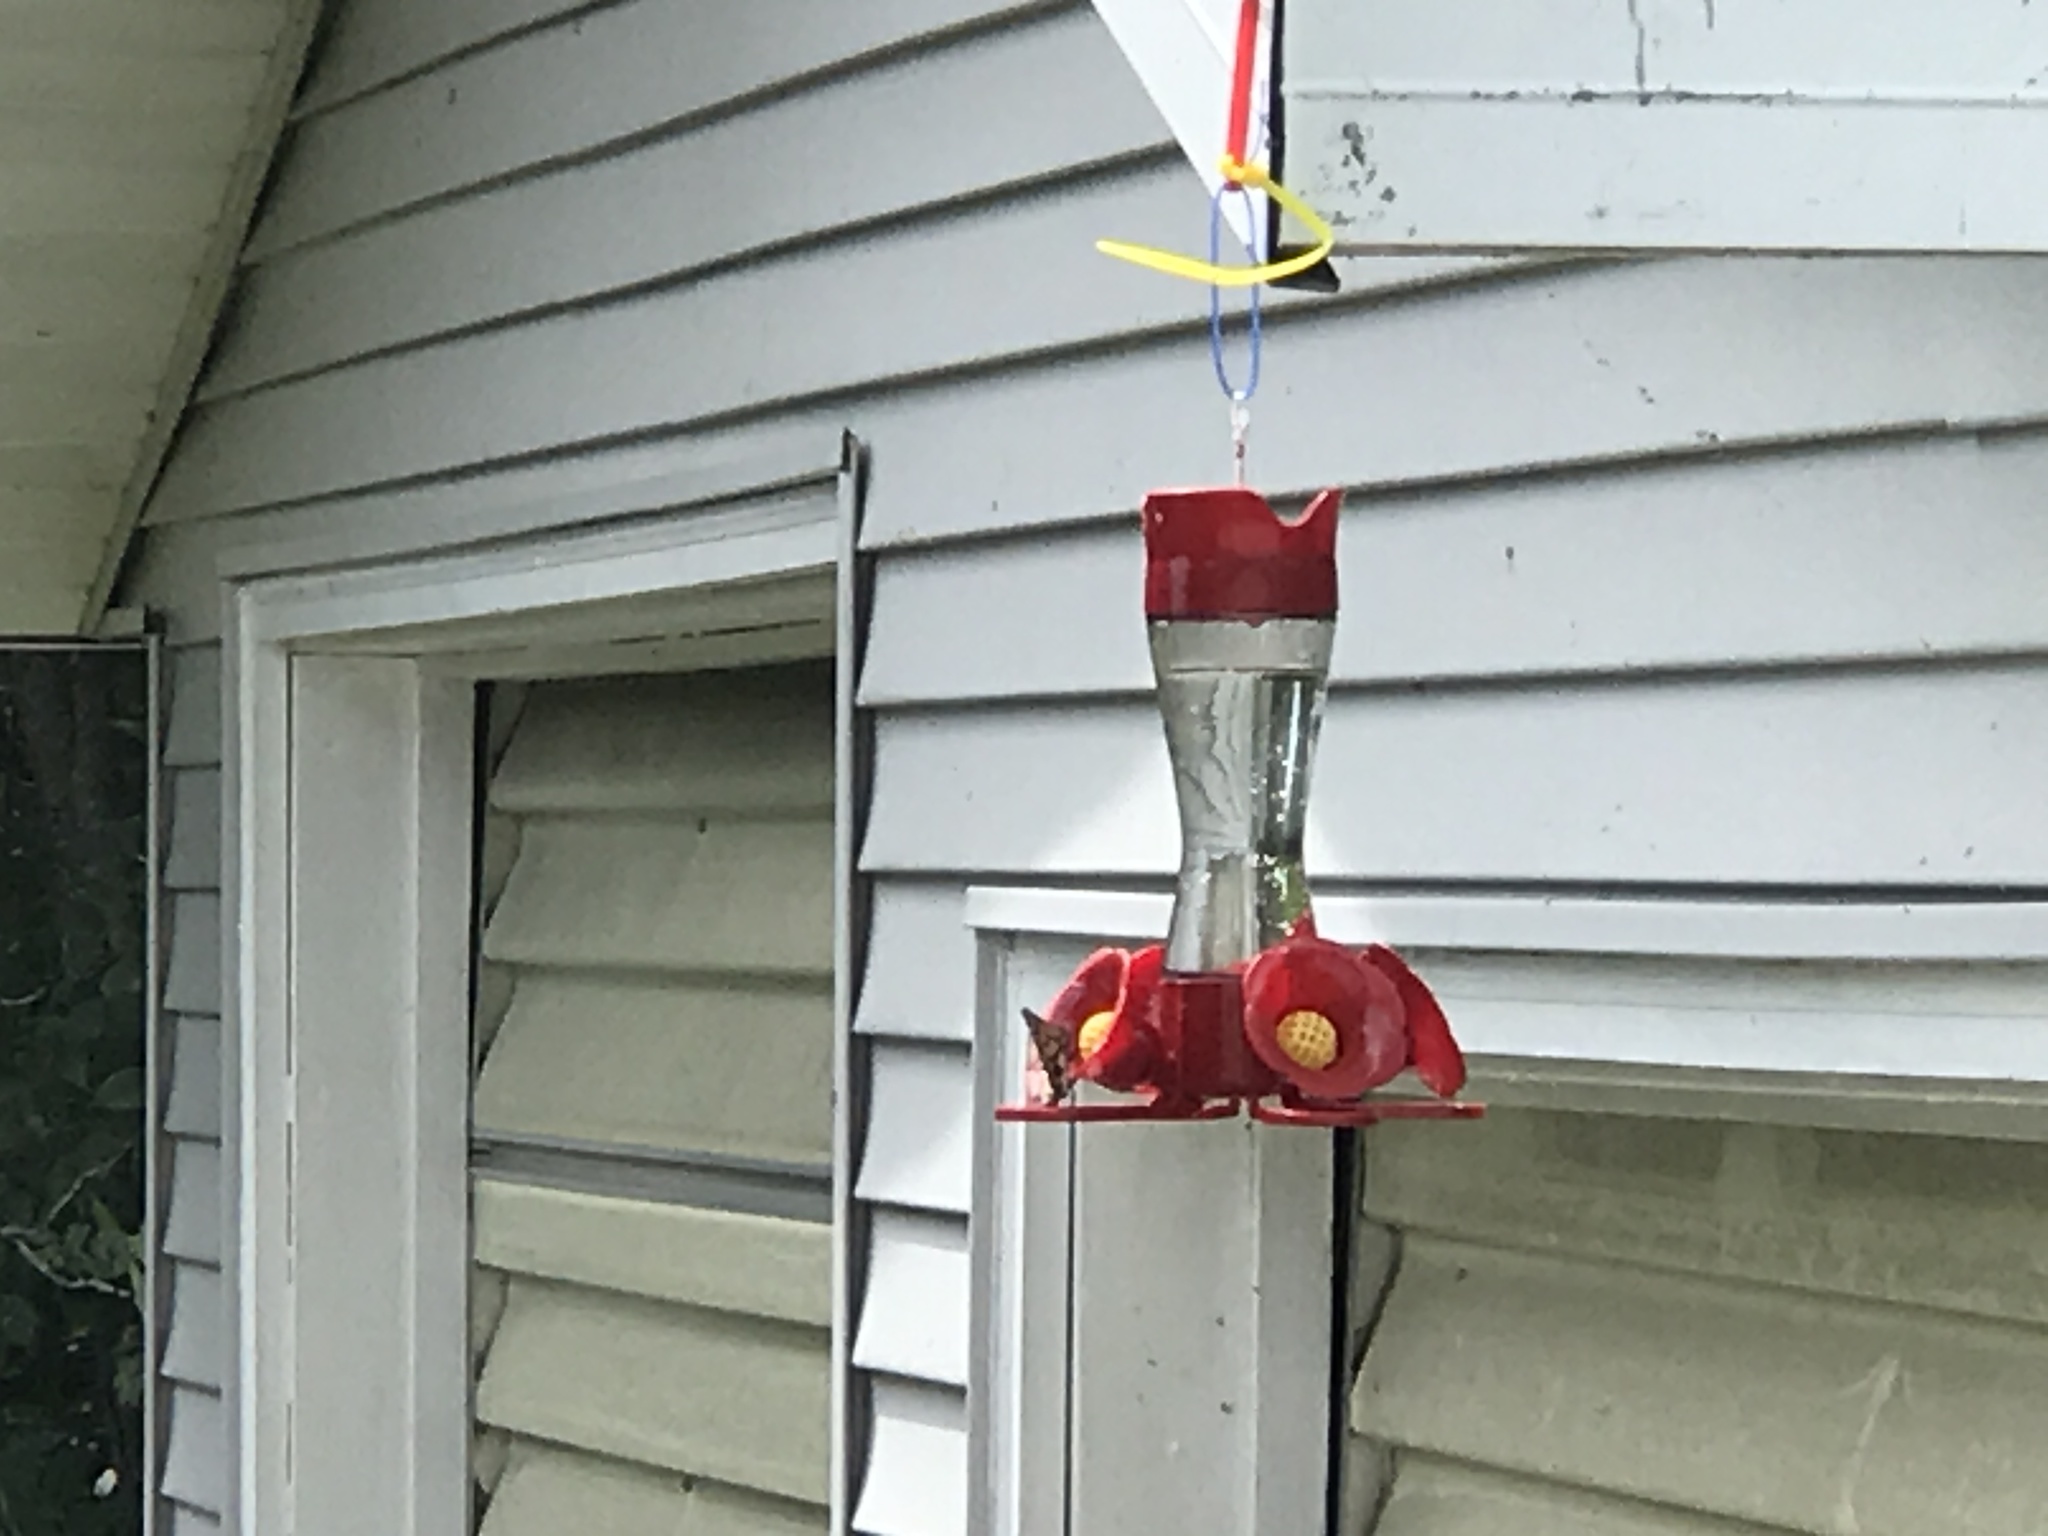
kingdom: Animalia
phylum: Arthropoda
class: Insecta
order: Lepidoptera
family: Nymphalidae
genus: Danaus
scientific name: Danaus plexippus
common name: Monarch
